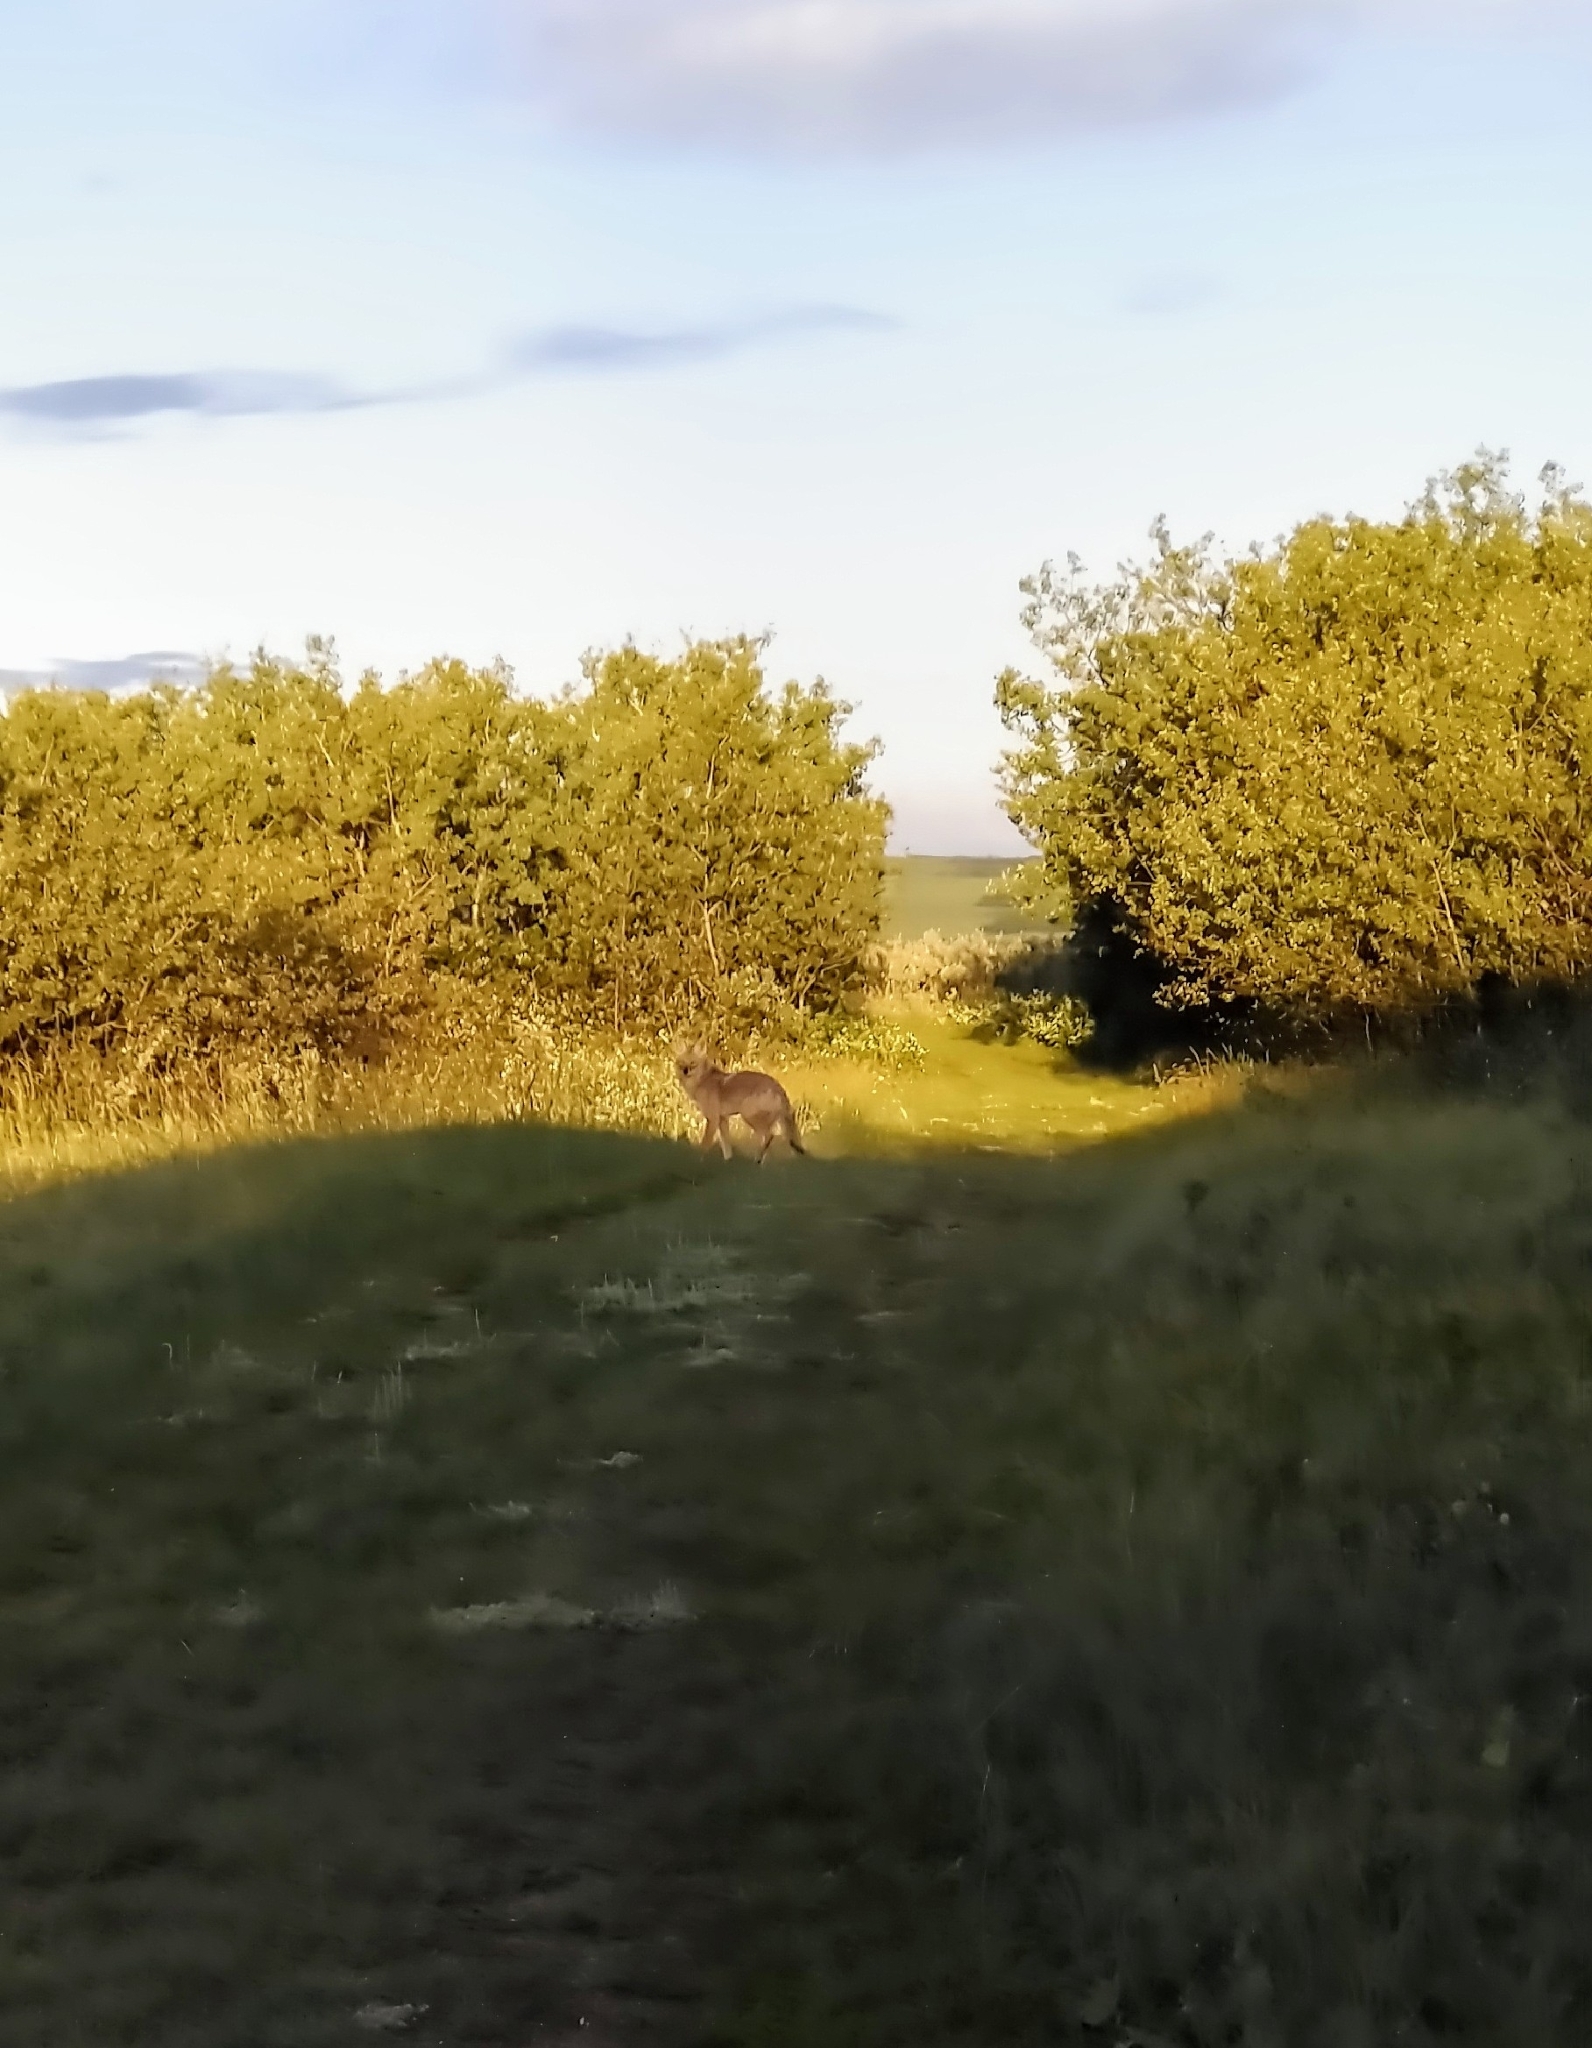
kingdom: Animalia
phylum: Chordata
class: Mammalia
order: Carnivora
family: Canidae
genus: Canis
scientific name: Canis latrans
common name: Coyote
